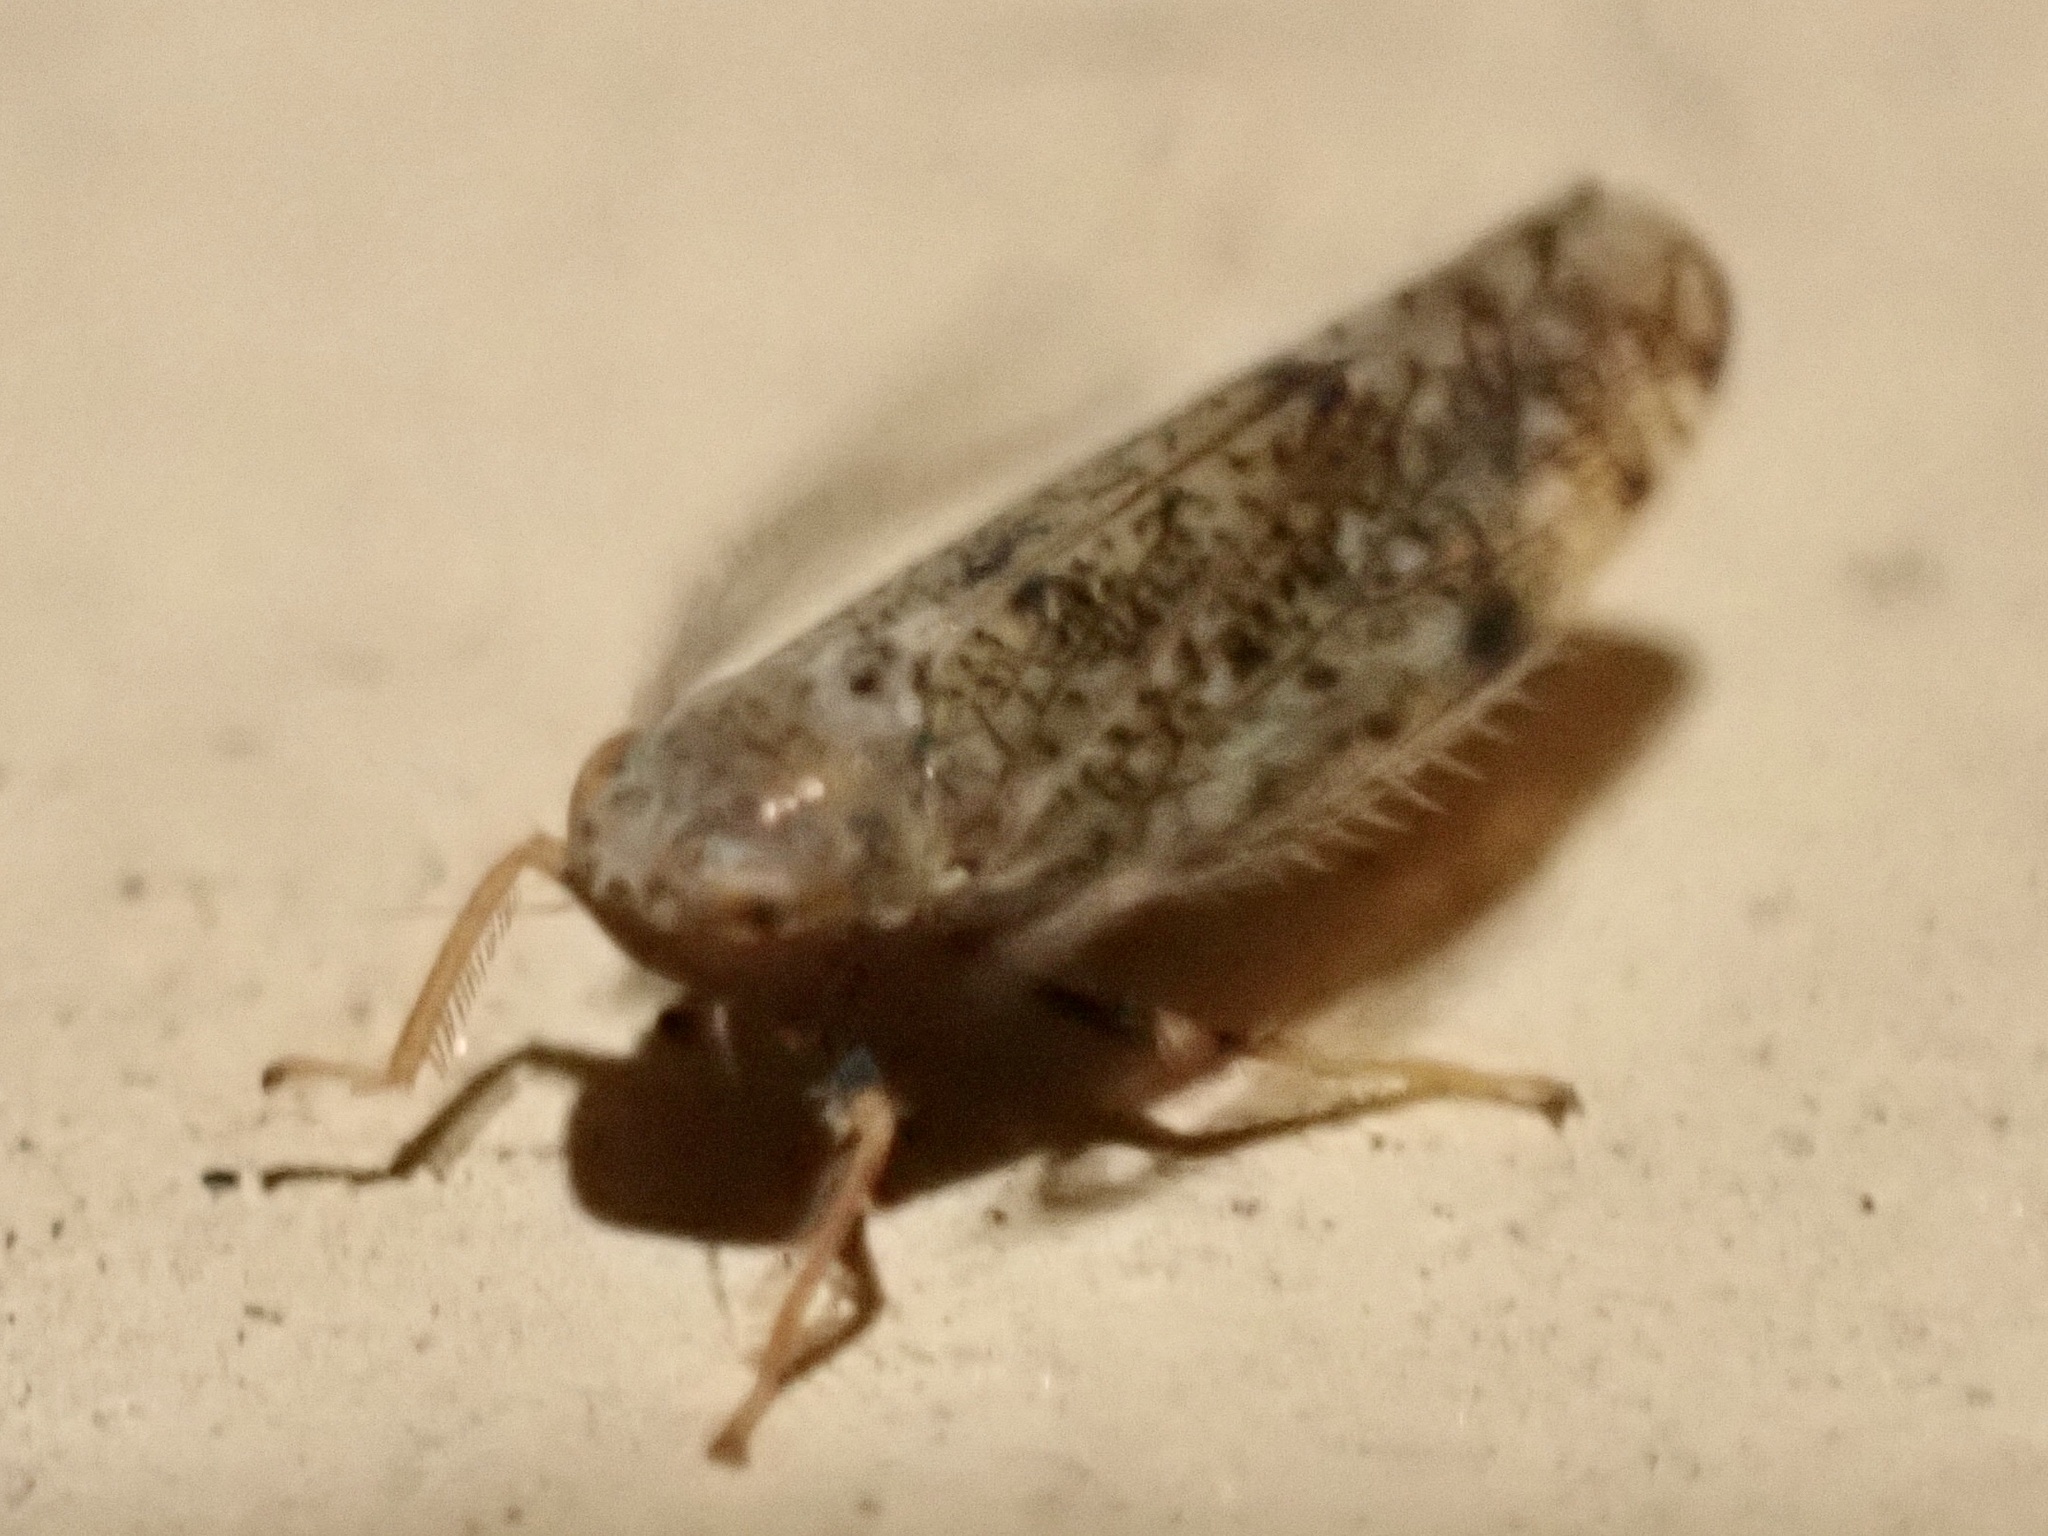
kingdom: Animalia
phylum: Arthropoda
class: Insecta
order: Hemiptera
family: Cicadellidae
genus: Orientus
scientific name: Orientus ishidae
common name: Japanese leafhopper
